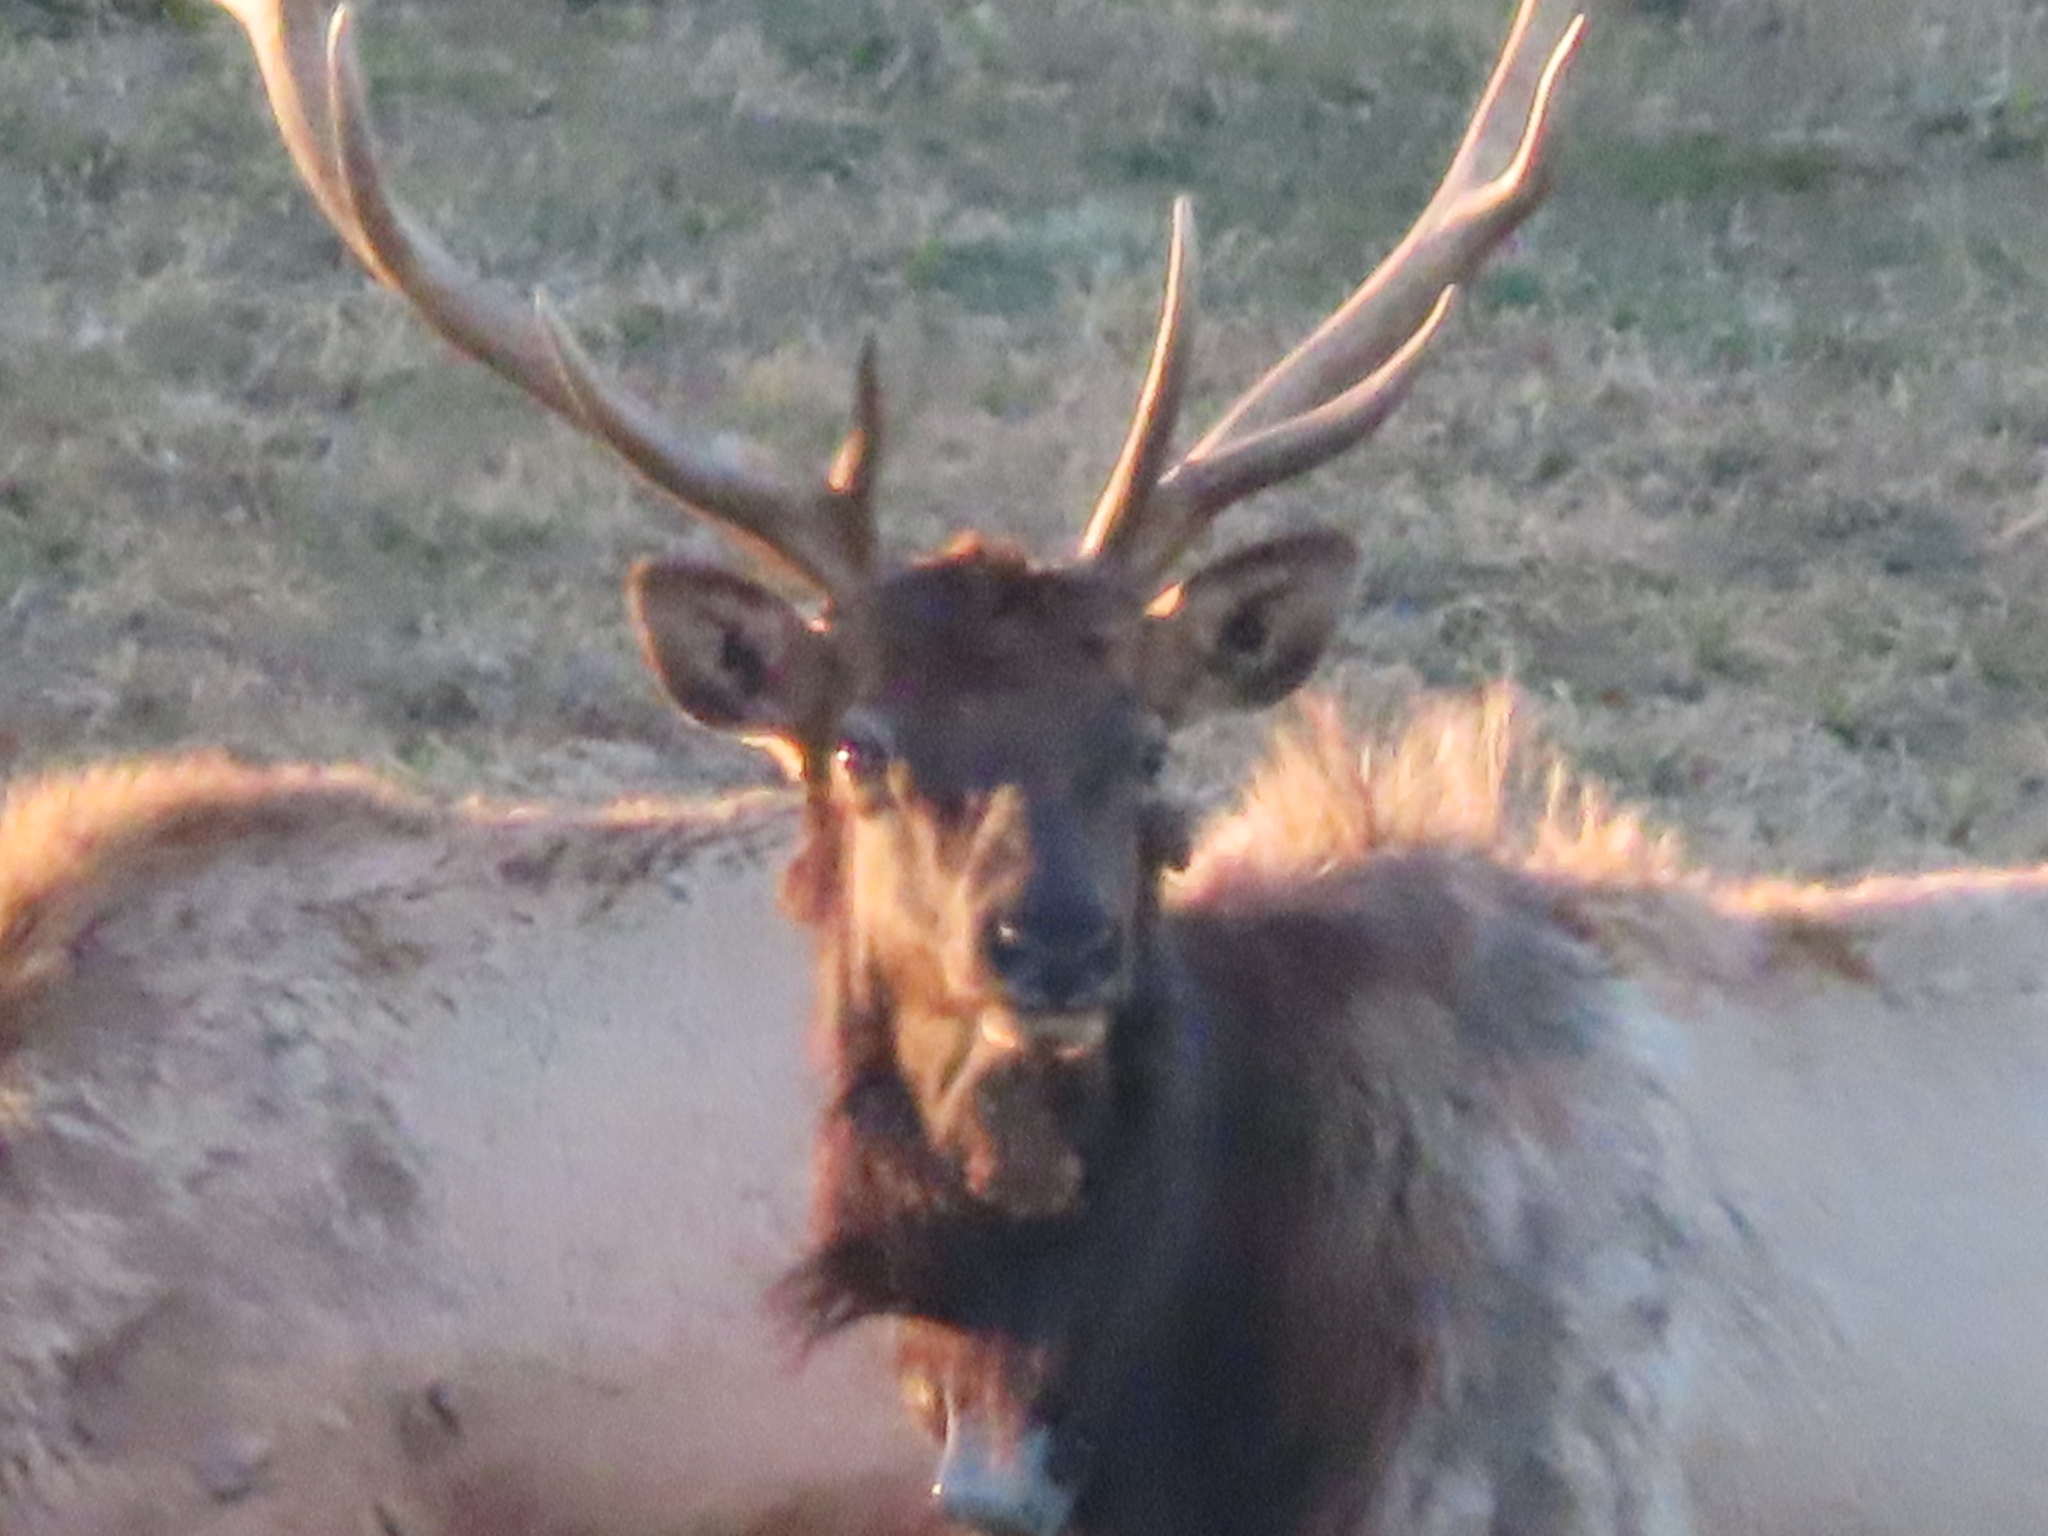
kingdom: Animalia
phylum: Chordata
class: Mammalia
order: Artiodactyla
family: Cervidae
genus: Cervus
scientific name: Cervus elaphus
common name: Red deer
